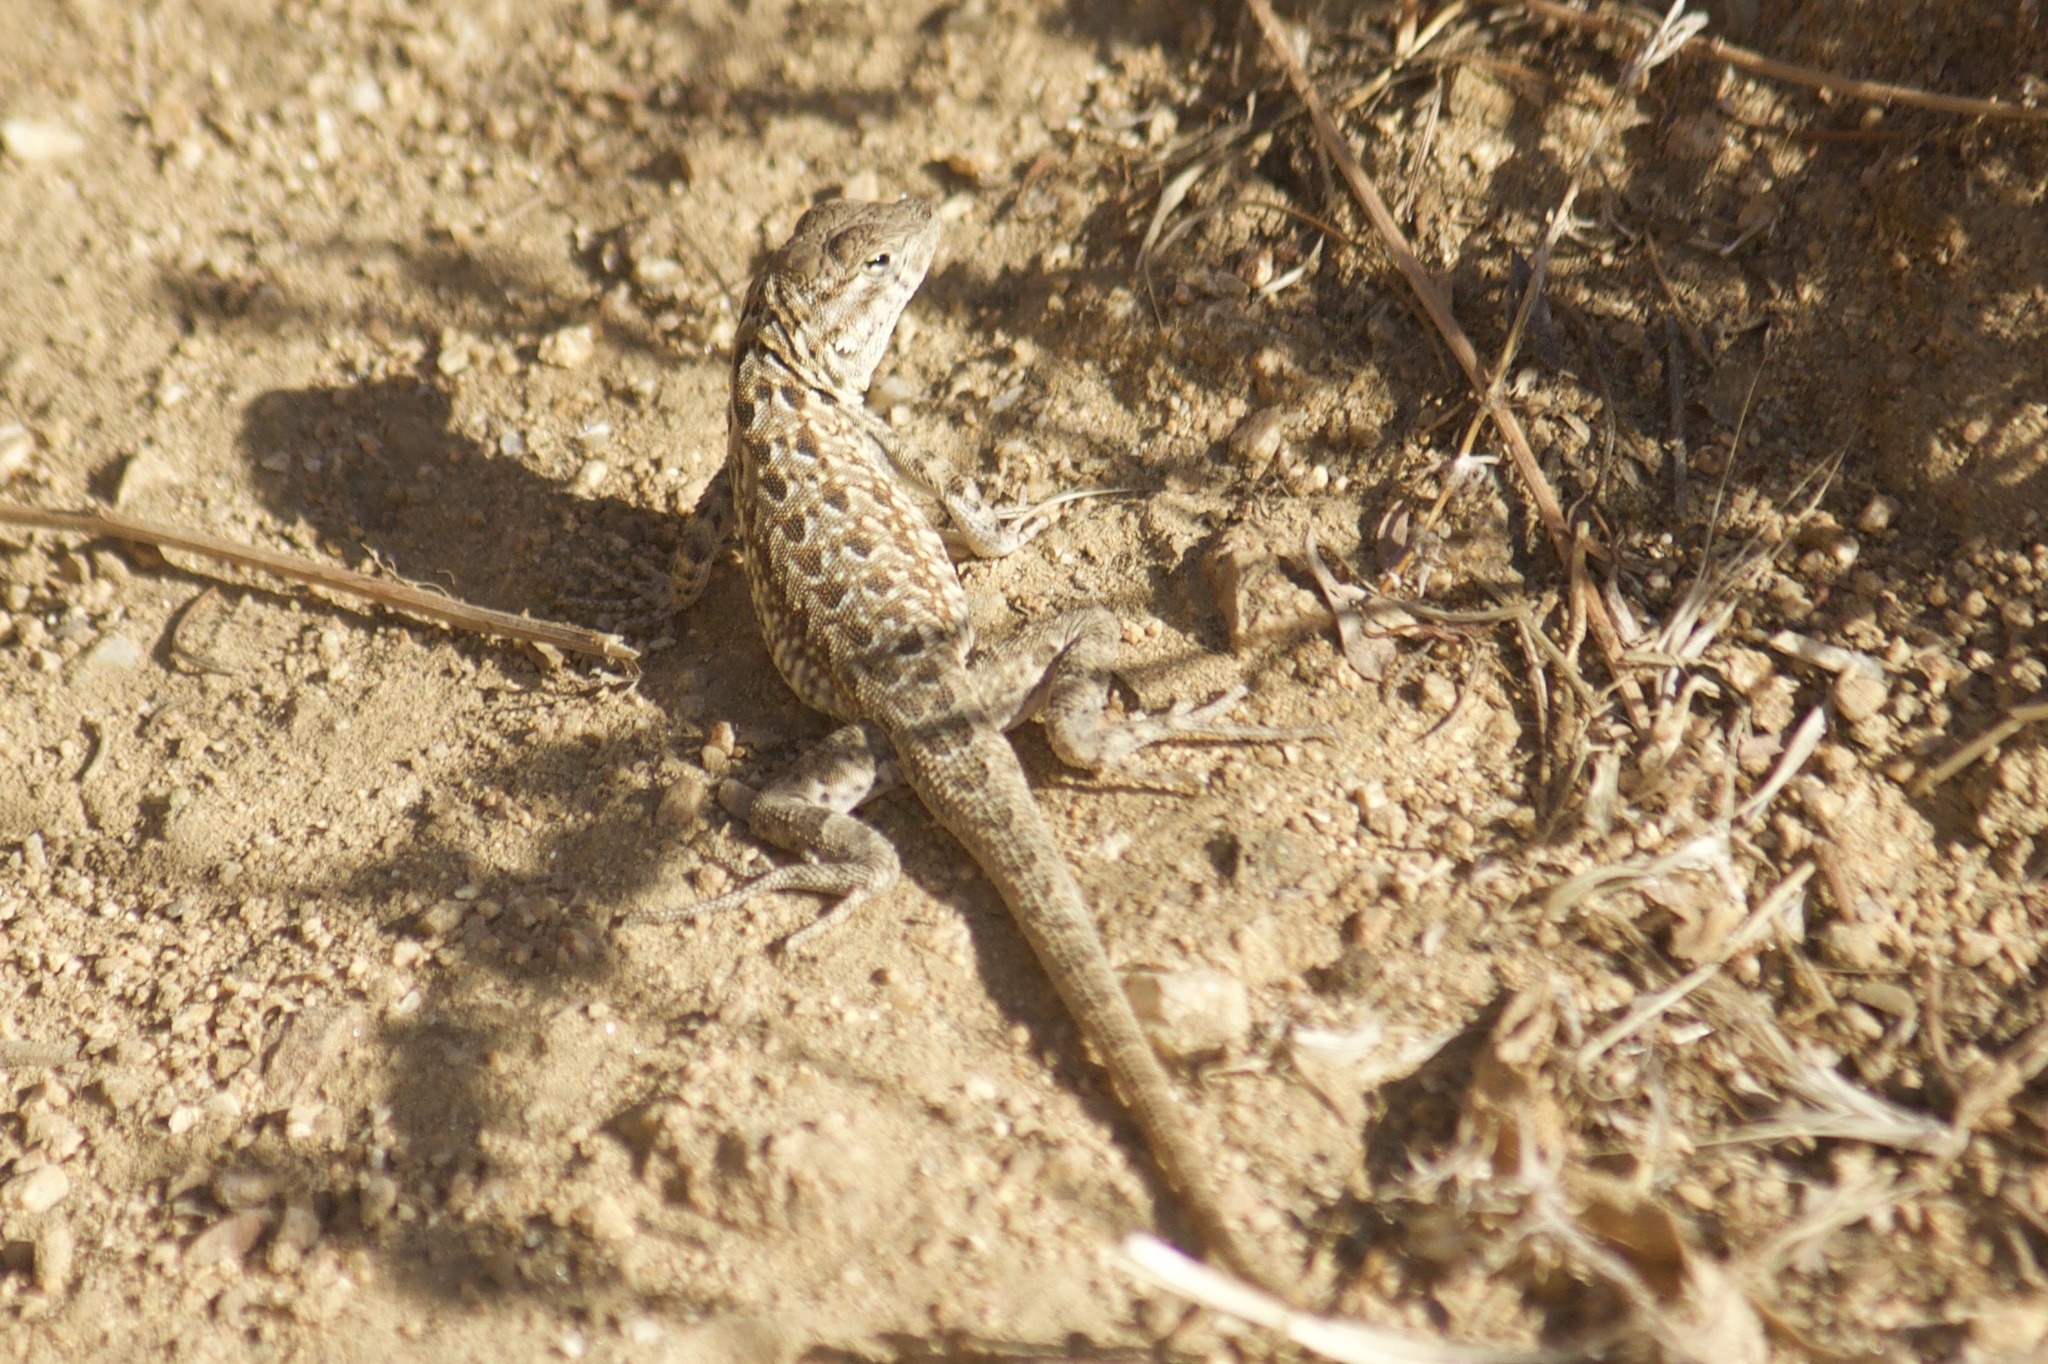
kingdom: Animalia
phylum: Chordata
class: Squamata
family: Phrynosomatidae
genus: Uta
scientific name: Uta stansburiana
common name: Side-blotched lizard
